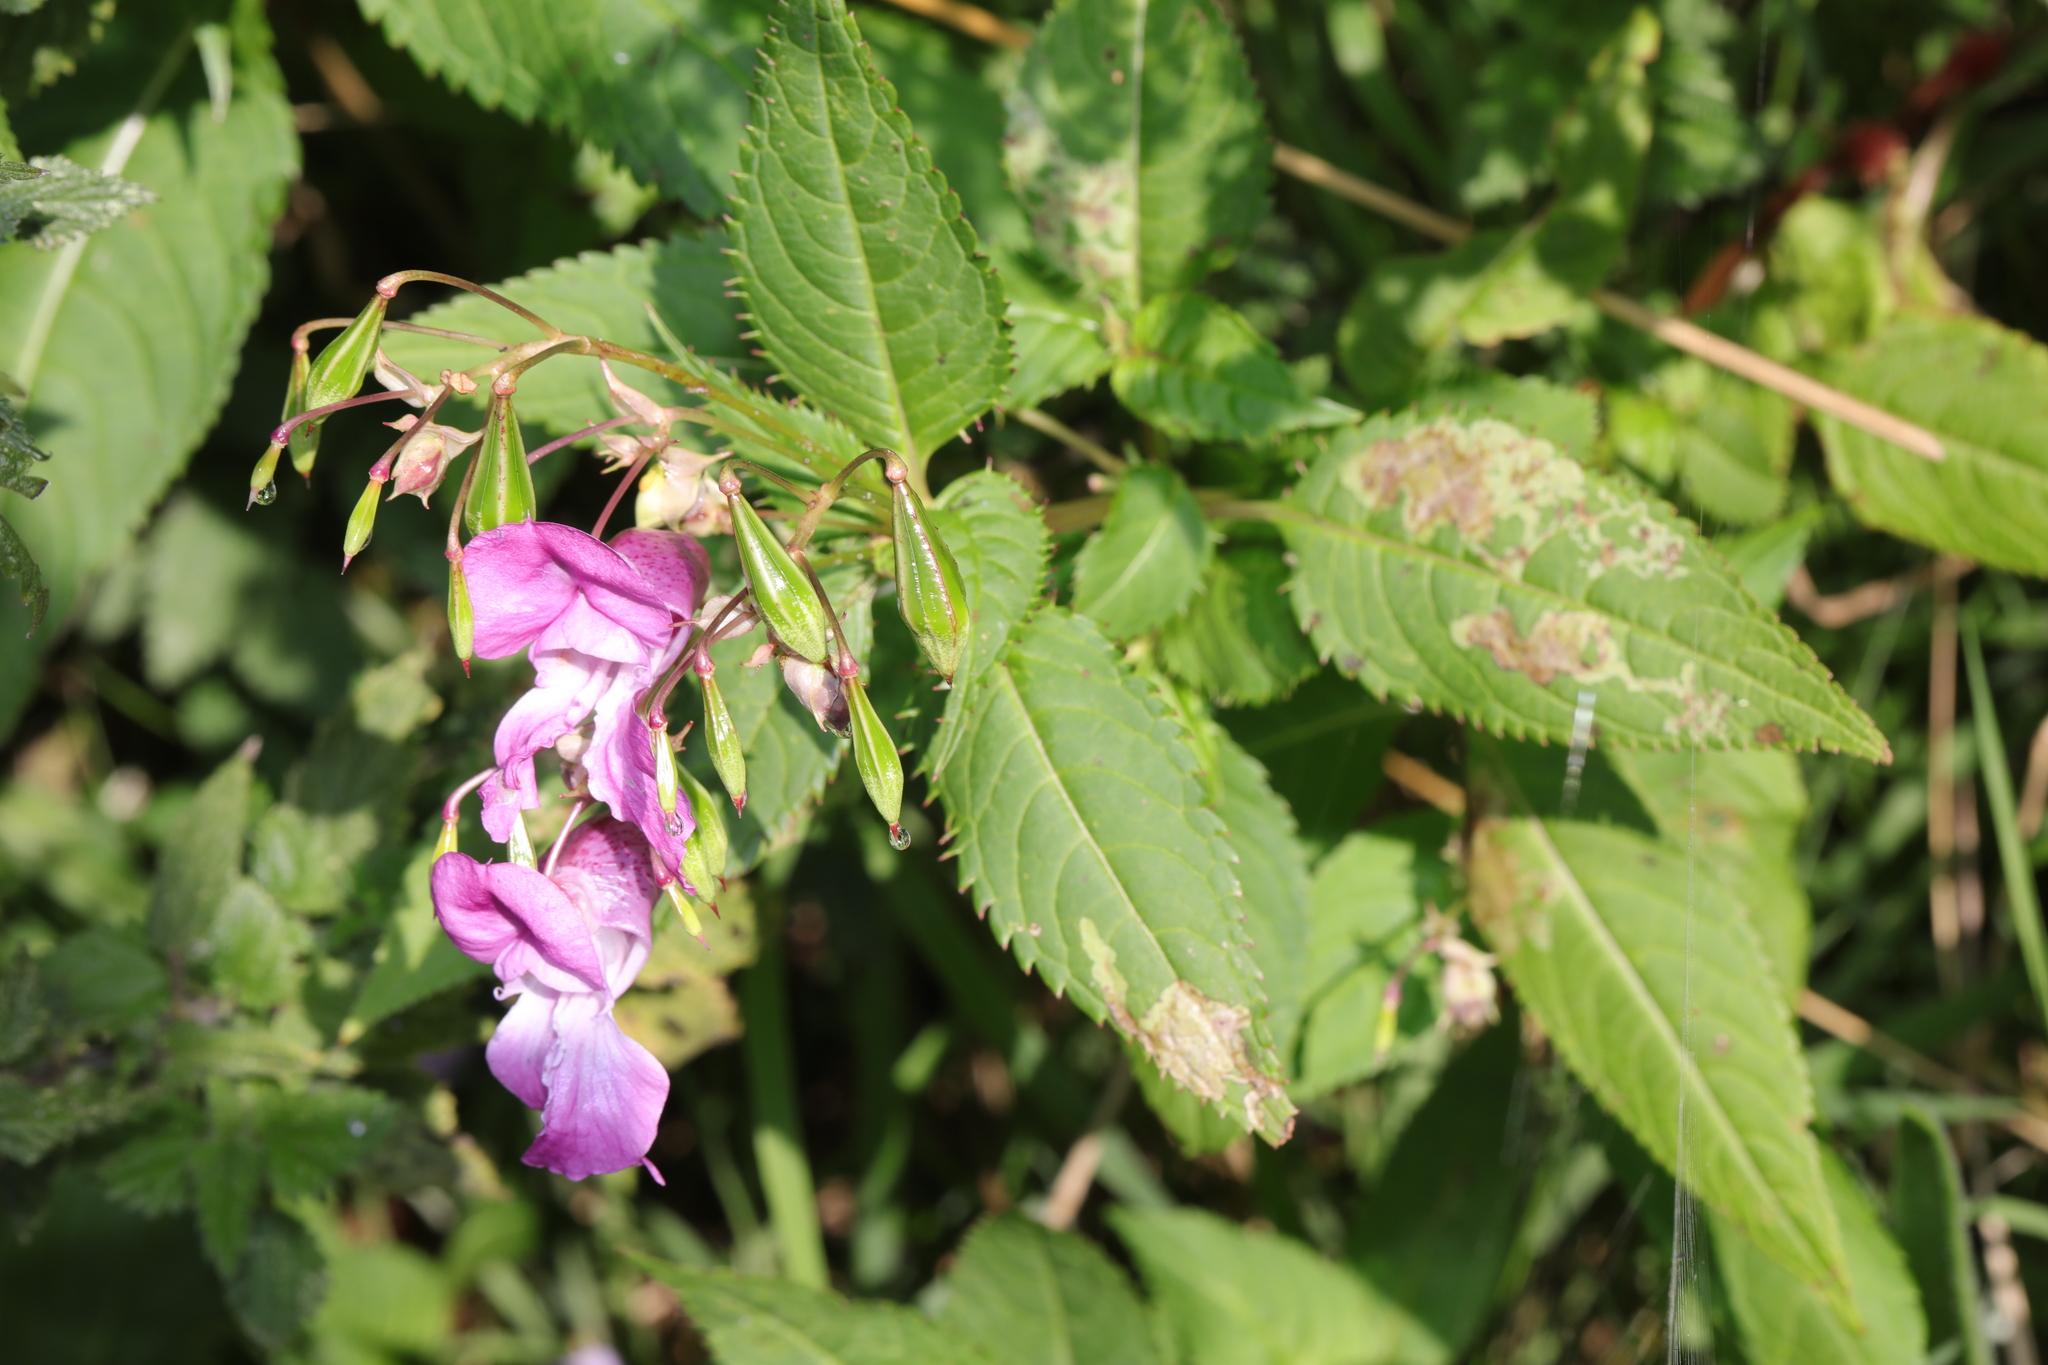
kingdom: Plantae
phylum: Tracheophyta
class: Magnoliopsida
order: Ericales
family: Balsaminaceae
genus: Impatiens
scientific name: Impatiens glandulifera
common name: Himalayan balsam
